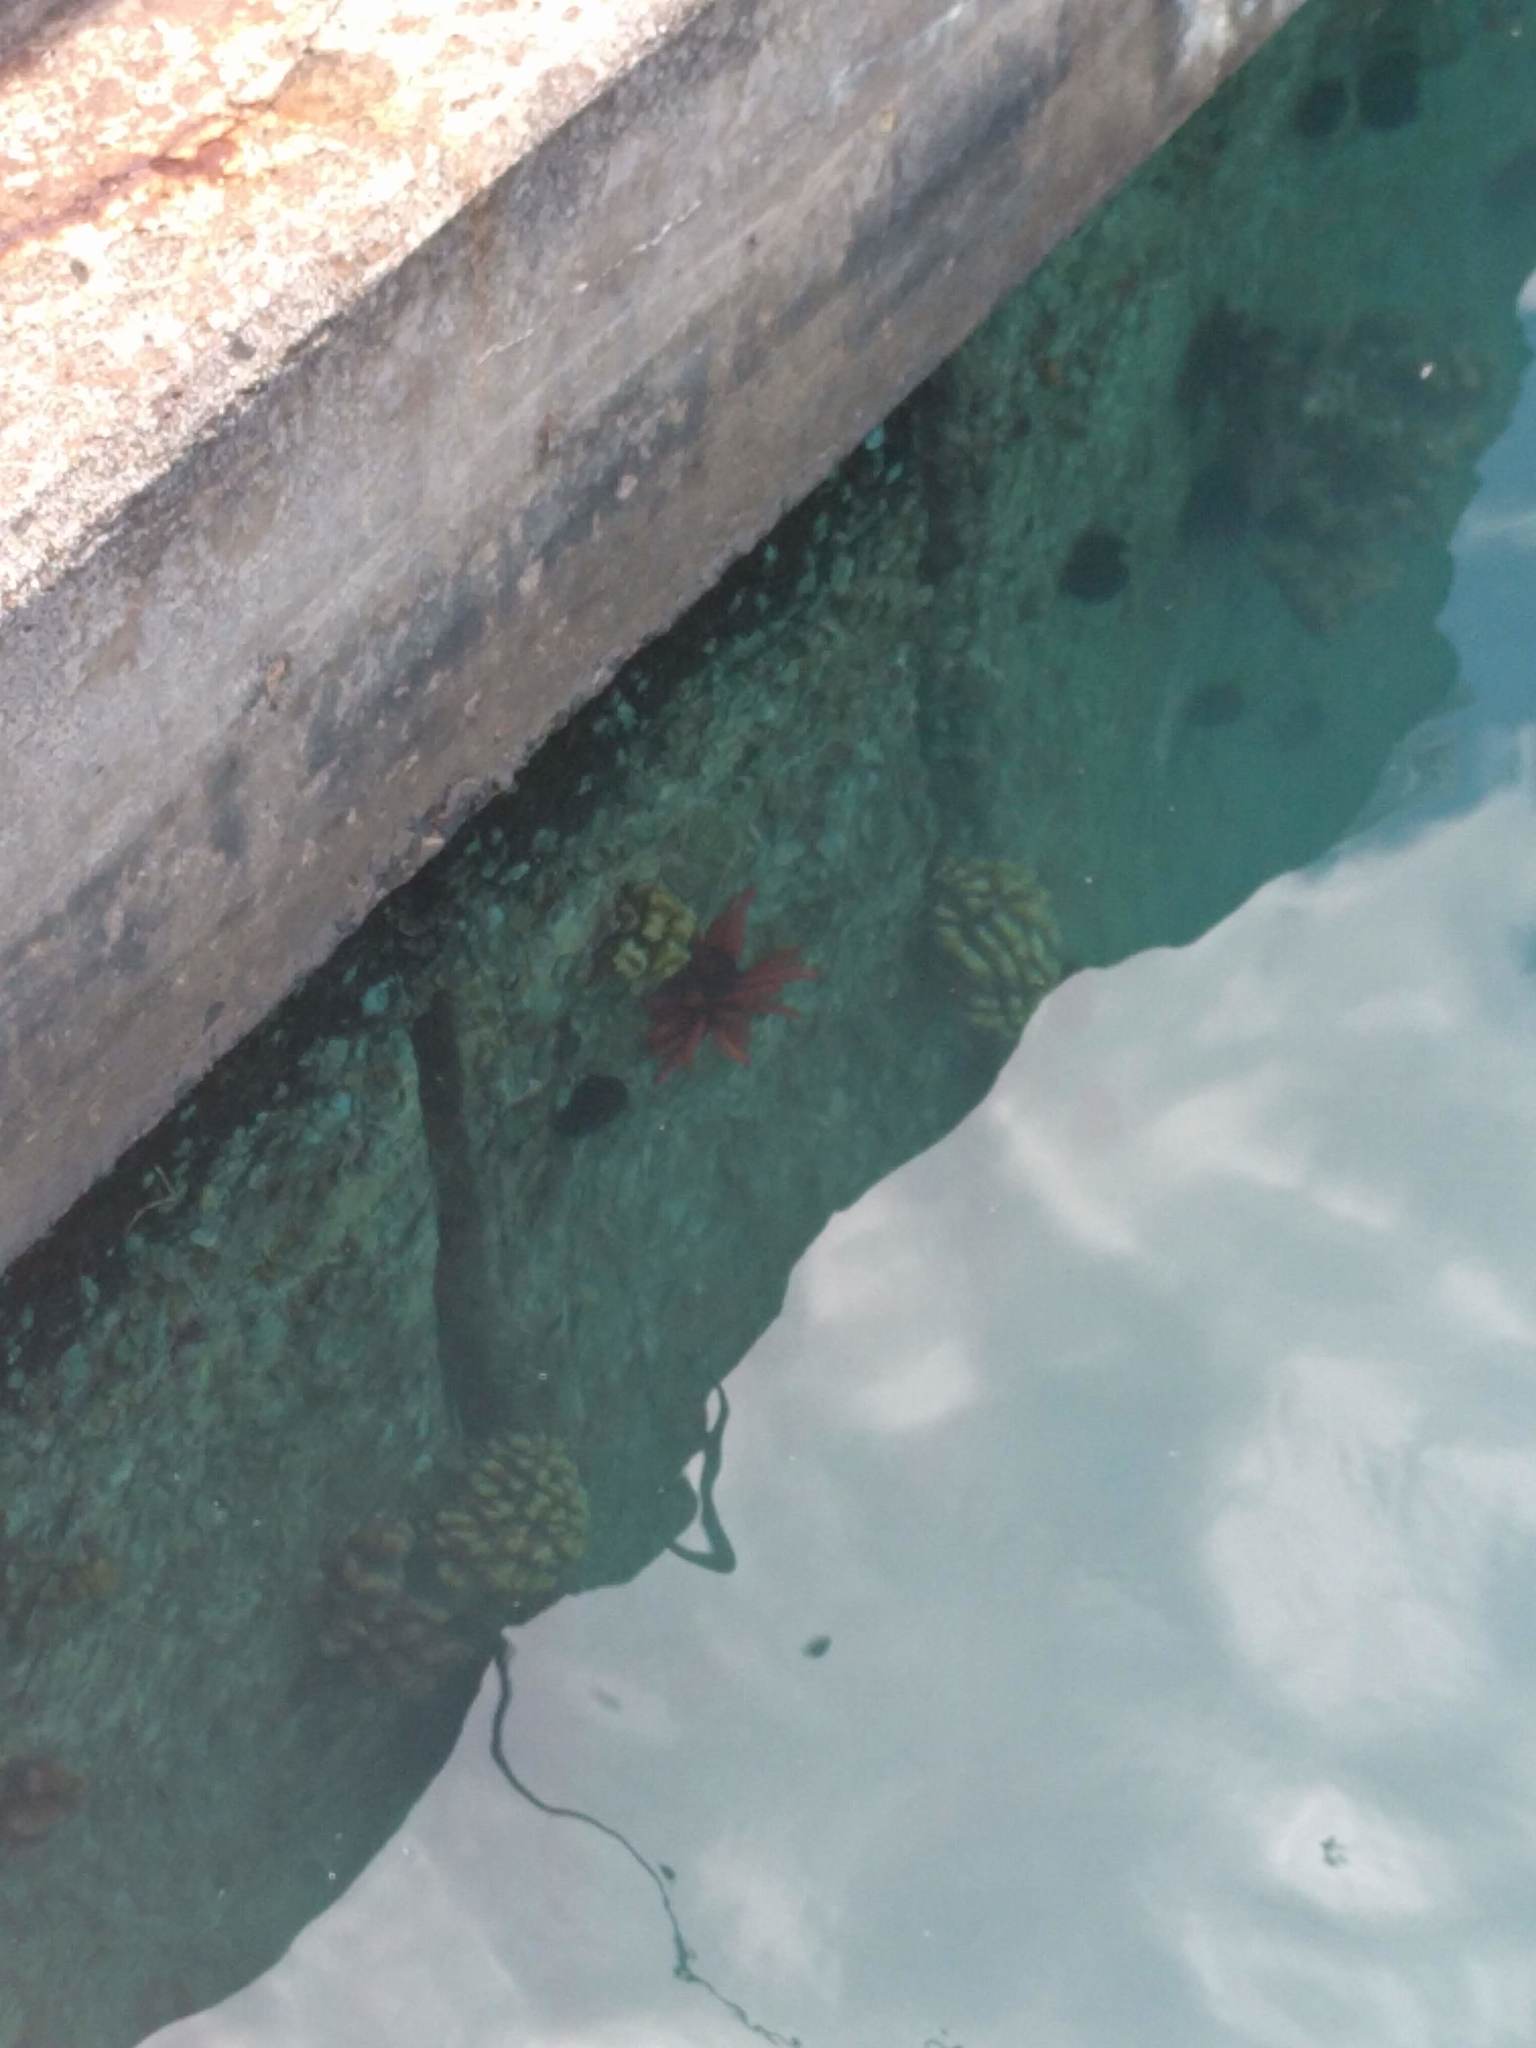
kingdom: Animalia
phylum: Echinodermata
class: Echinoidea
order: Camarodonta
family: Echinometridae
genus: Heterocentrotus
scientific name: Heterocentrotus mamillatus
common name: Slate pencil urchin
